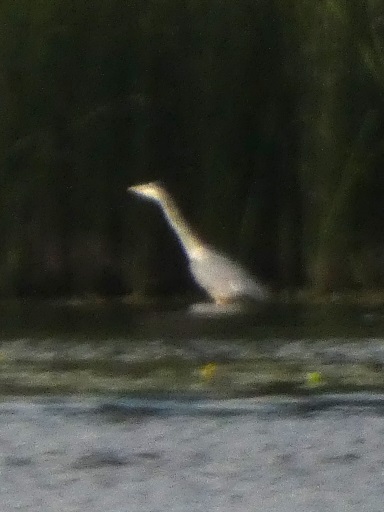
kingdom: Animalia
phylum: Chordata
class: Aves
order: Pelecaniformes
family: Ardeidae
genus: Ardea
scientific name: Ardea cinerea
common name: Grey heron
